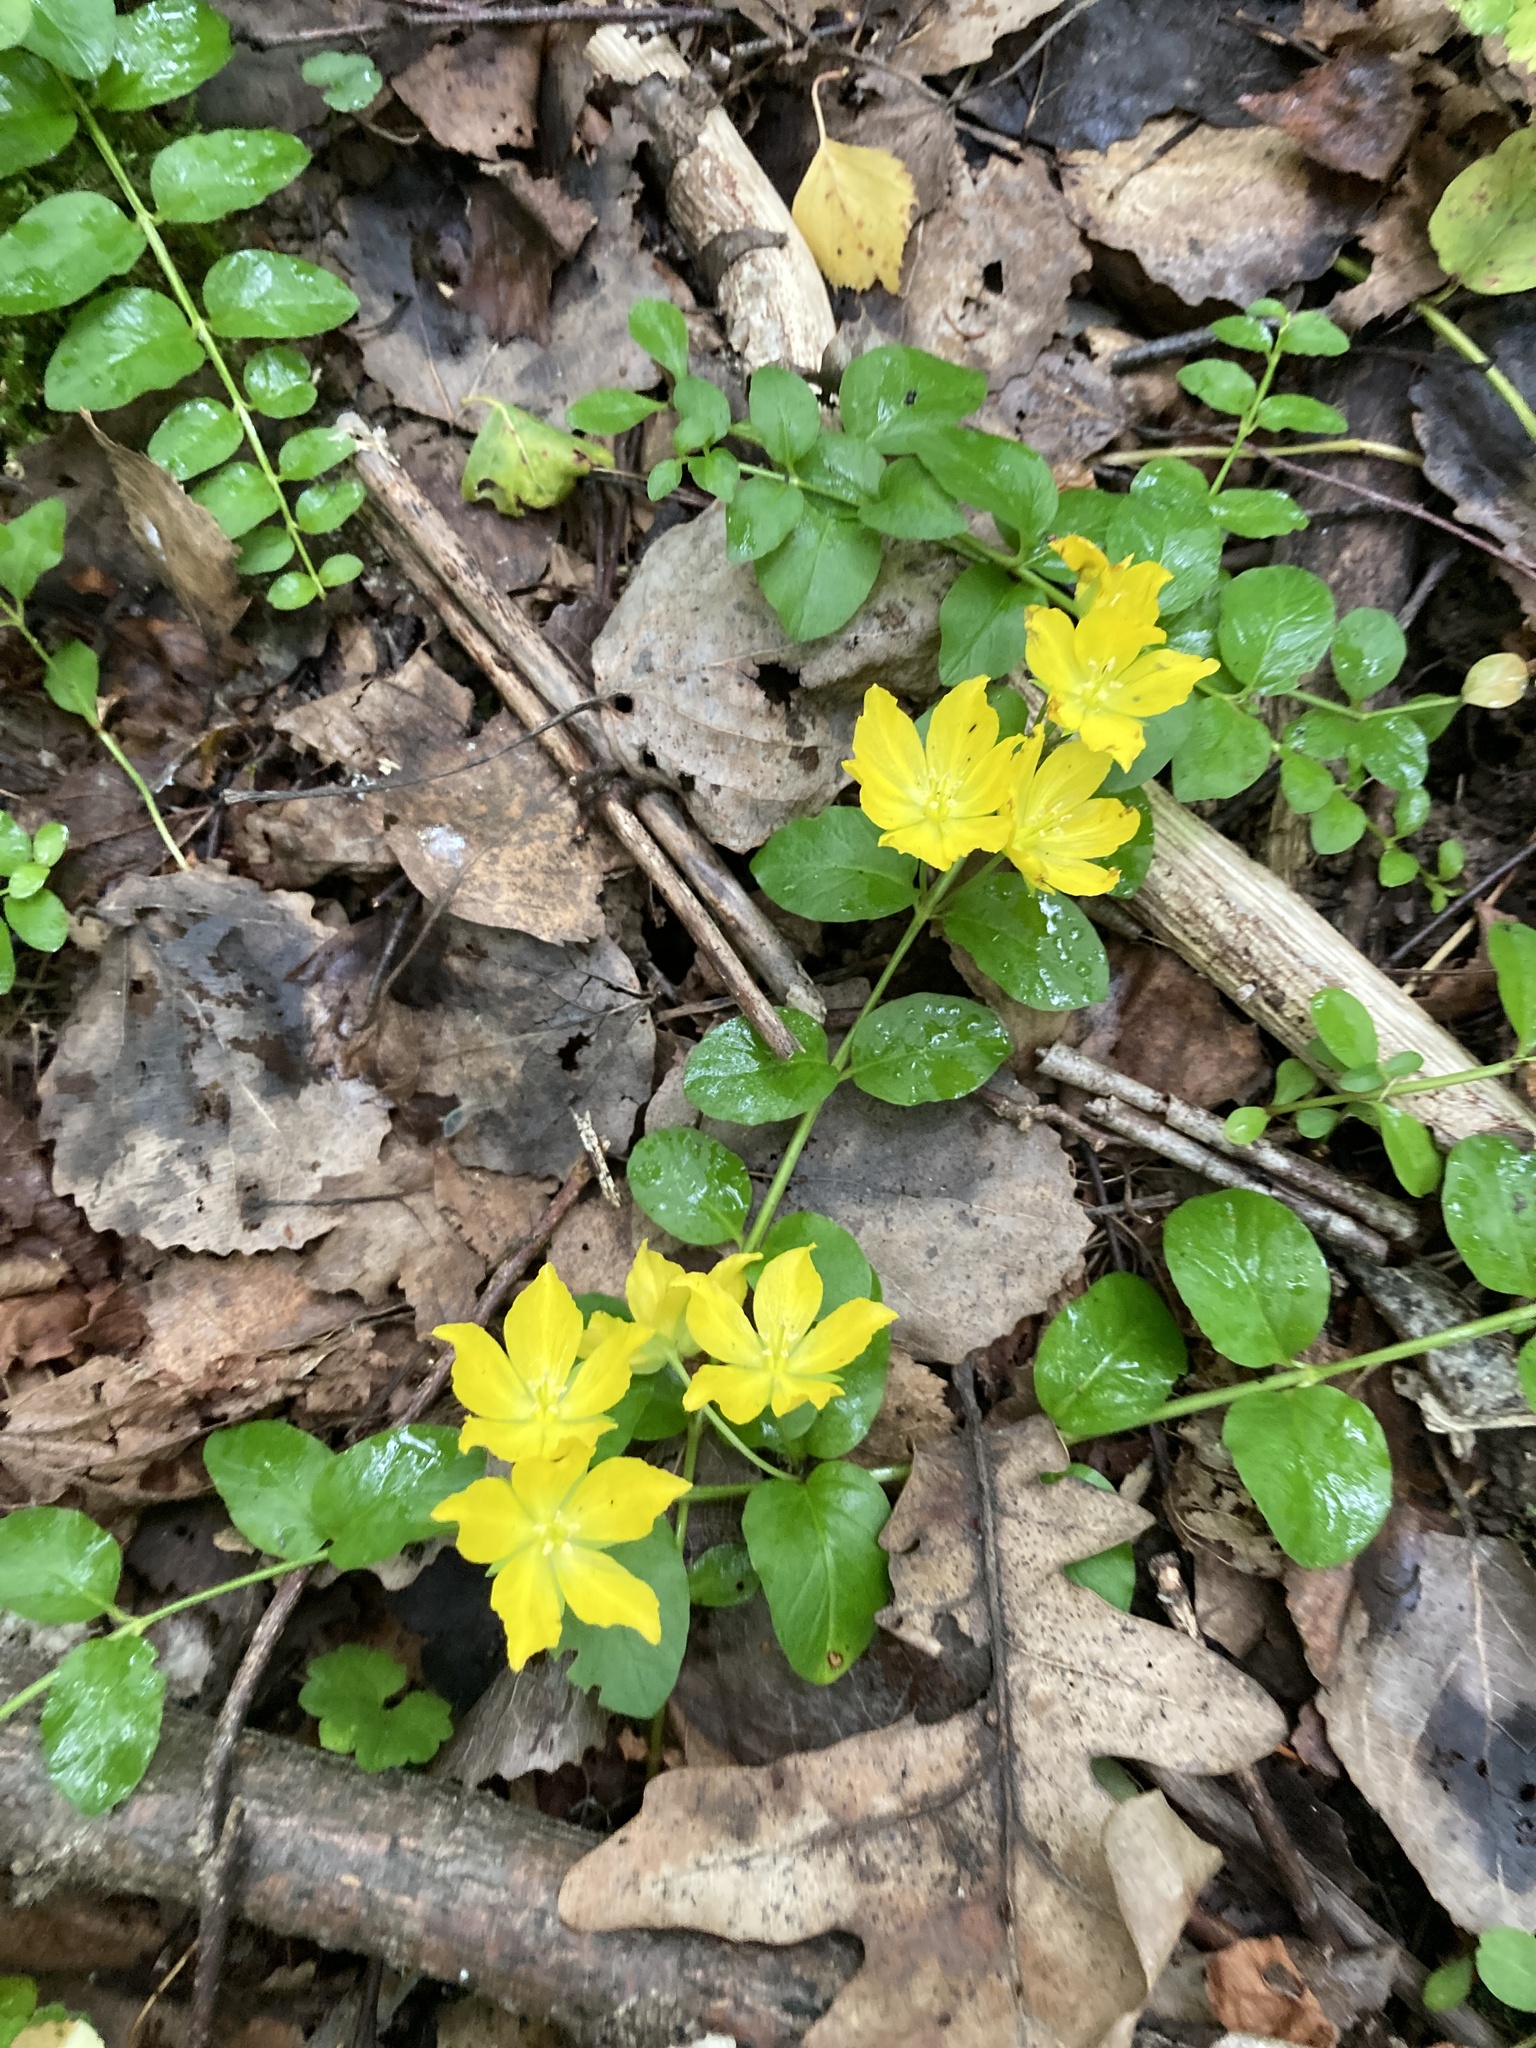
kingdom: Plantae
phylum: Tracheophyta
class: Magnoliopsida
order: Ericales
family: Primulaceae
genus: Lysimachia
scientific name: Lysimachia nummularia
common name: Moneywort
